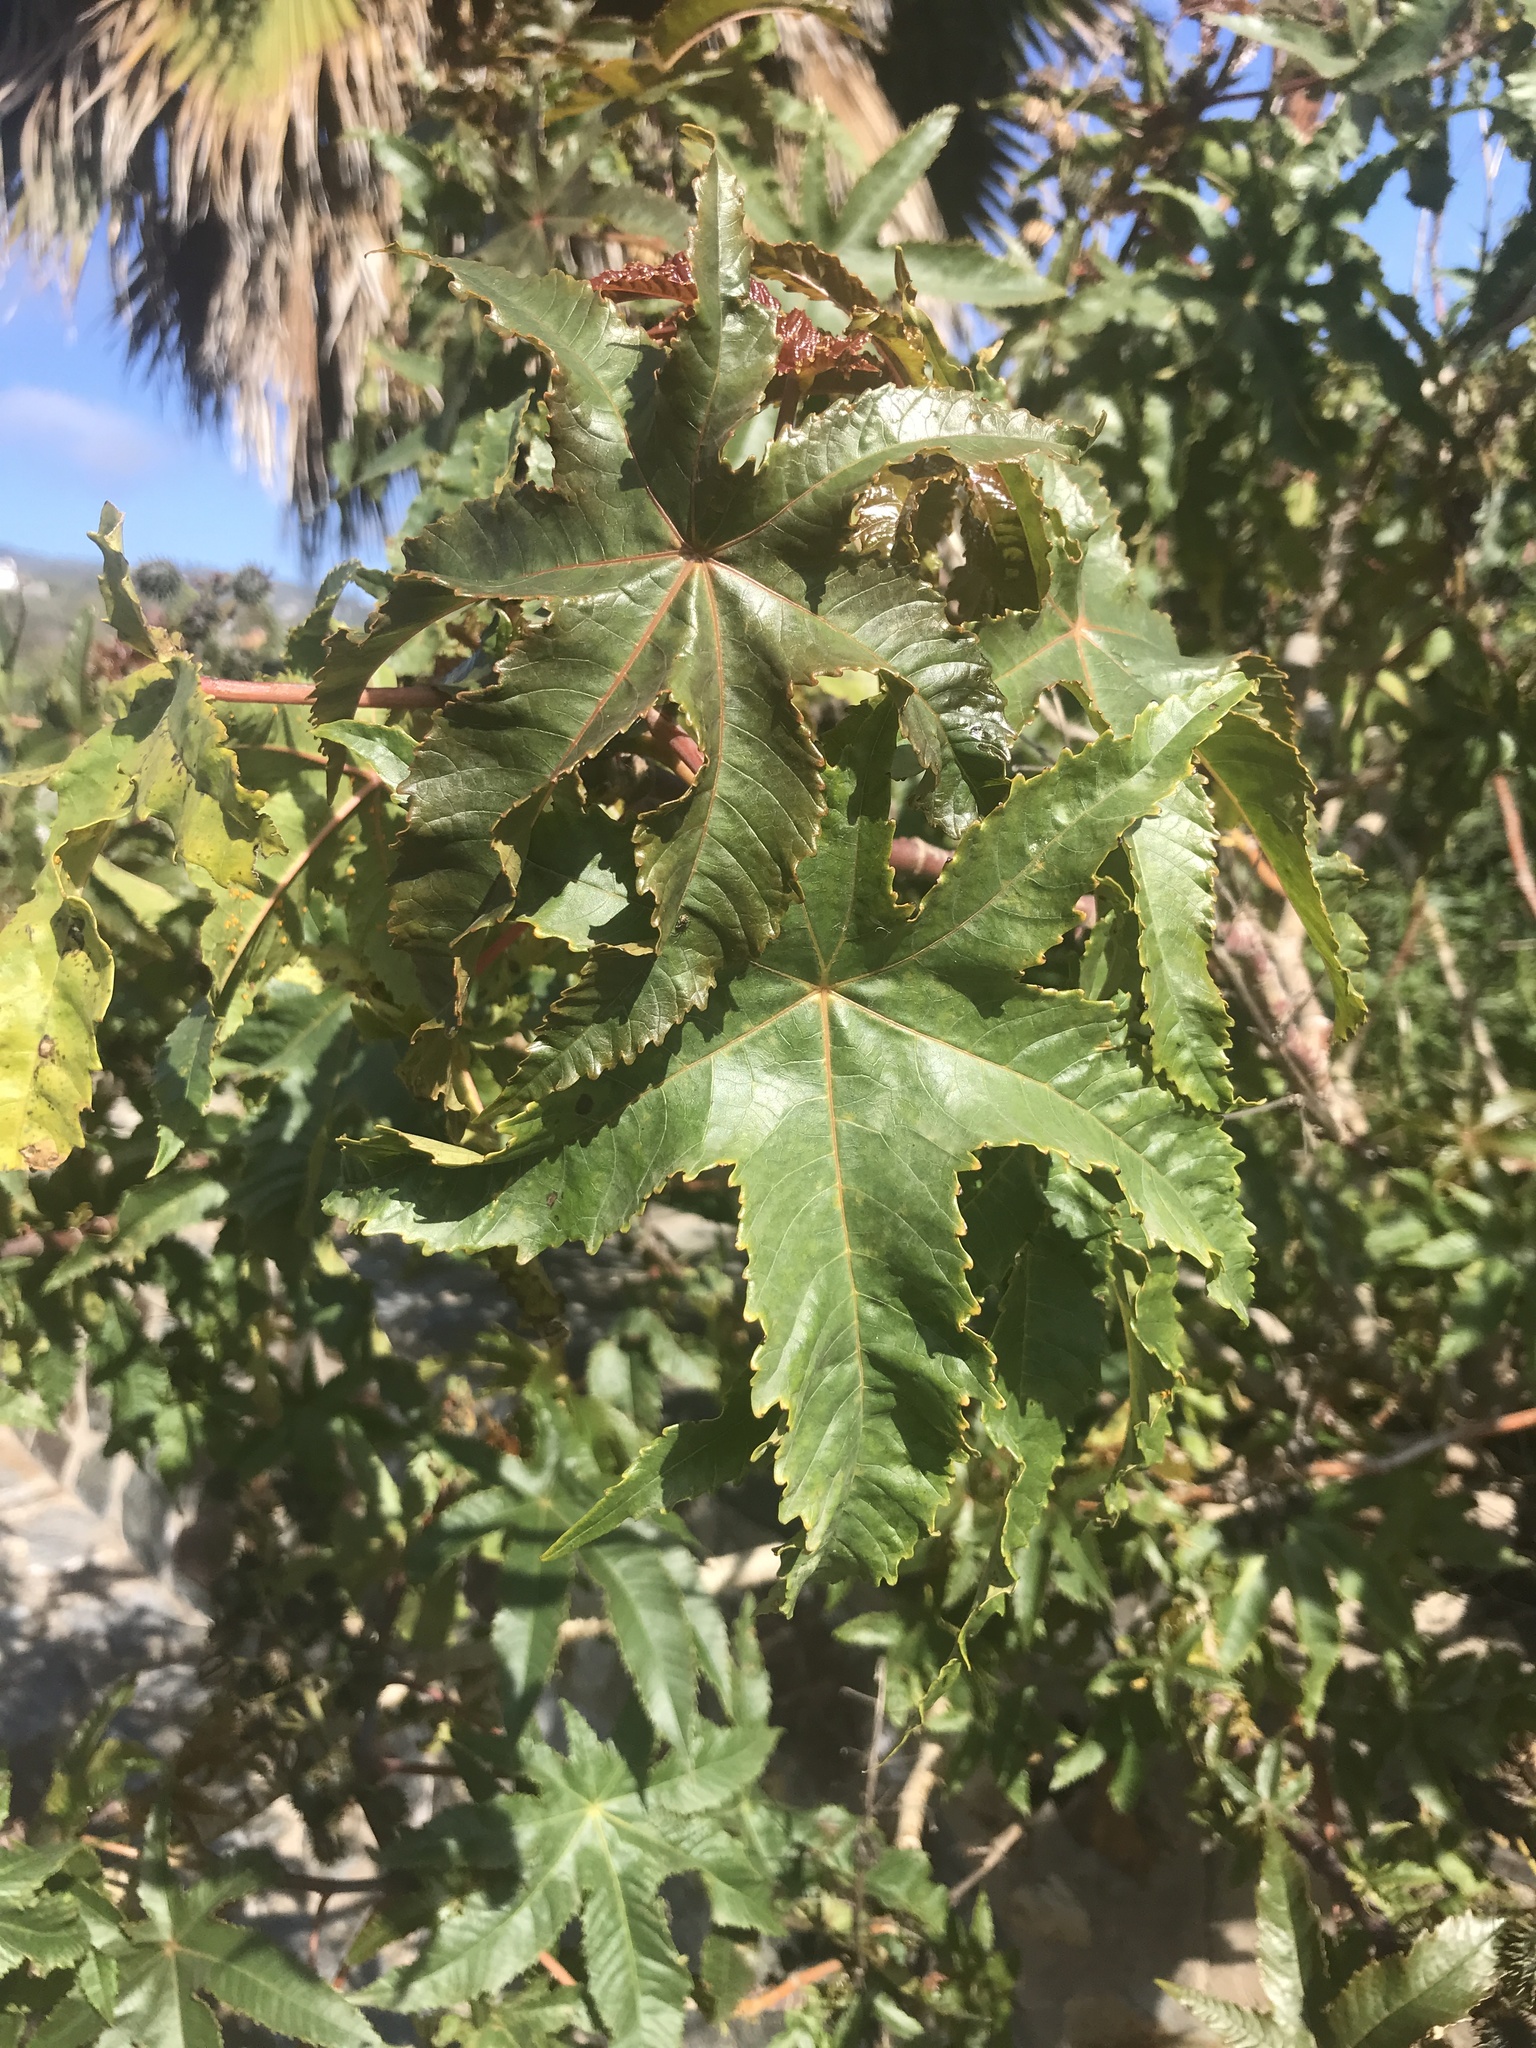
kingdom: Plantae
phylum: Tracheophyta
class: Magnoliopsida
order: Malpighiales
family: Euphorbiaceae
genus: Ricinus
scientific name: Ricinus communis
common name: Castor-oil-plant
